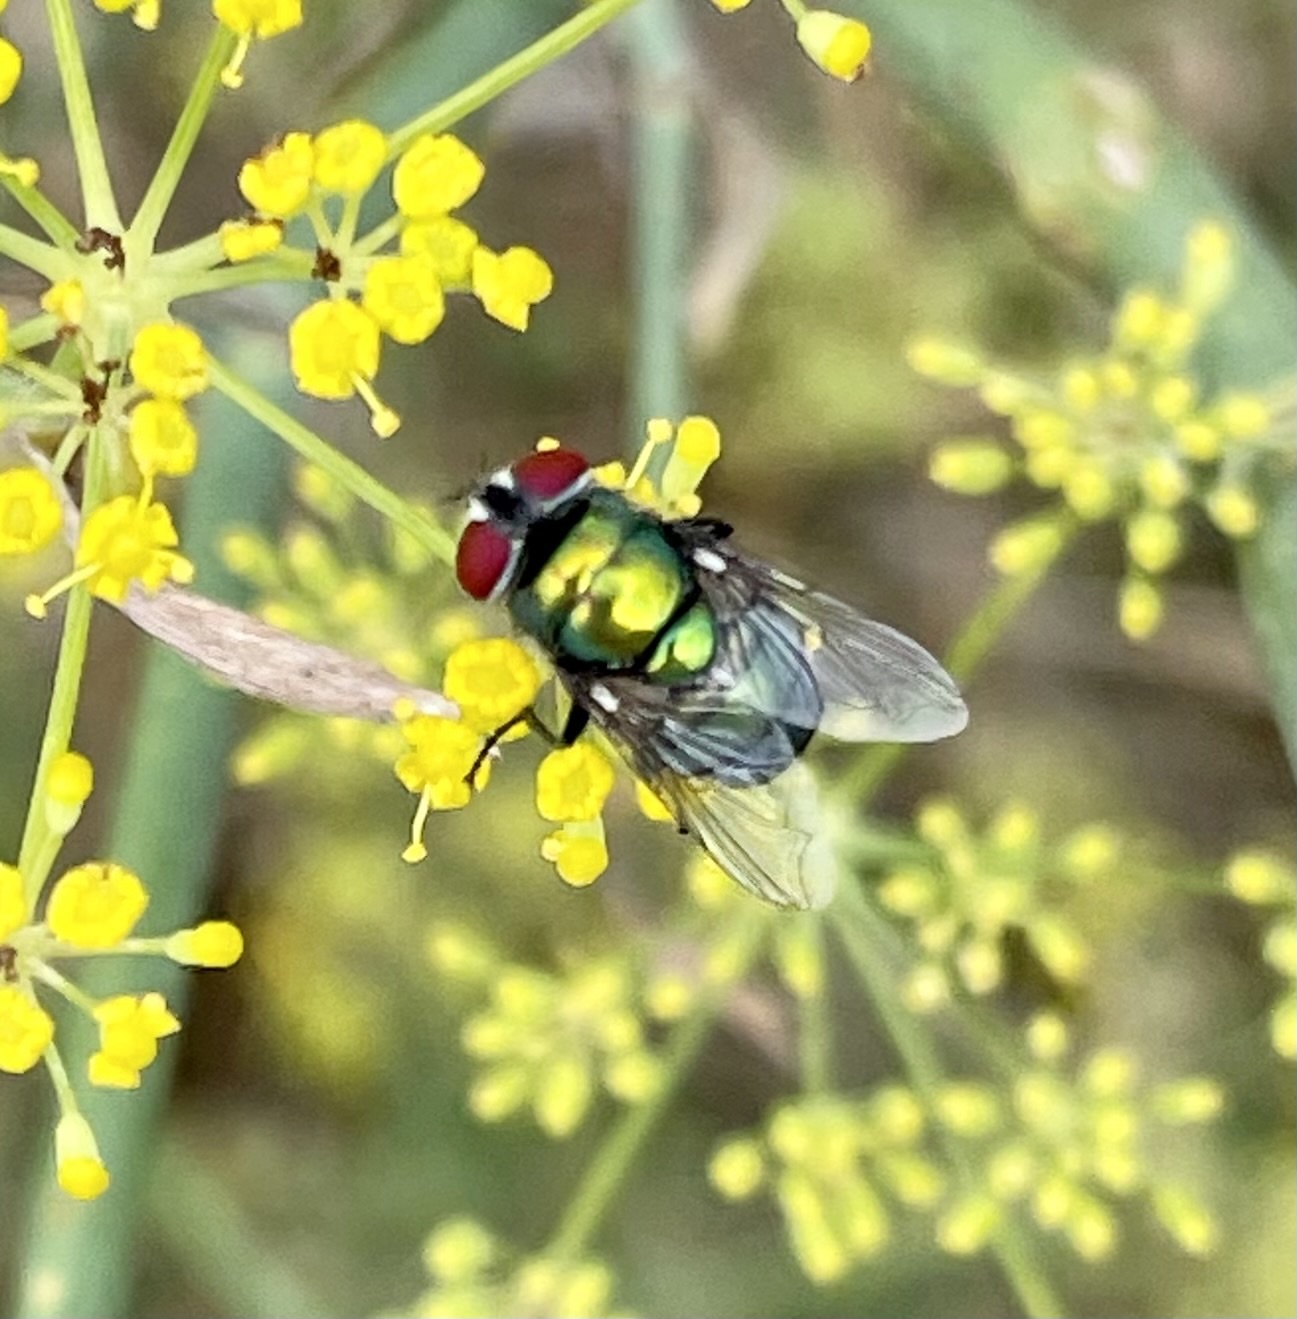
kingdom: Animalia
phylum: Arthropoda
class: Insecta
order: Diptera
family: Calliphoridae
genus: Chrysomya
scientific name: Chrysomya albiceps
